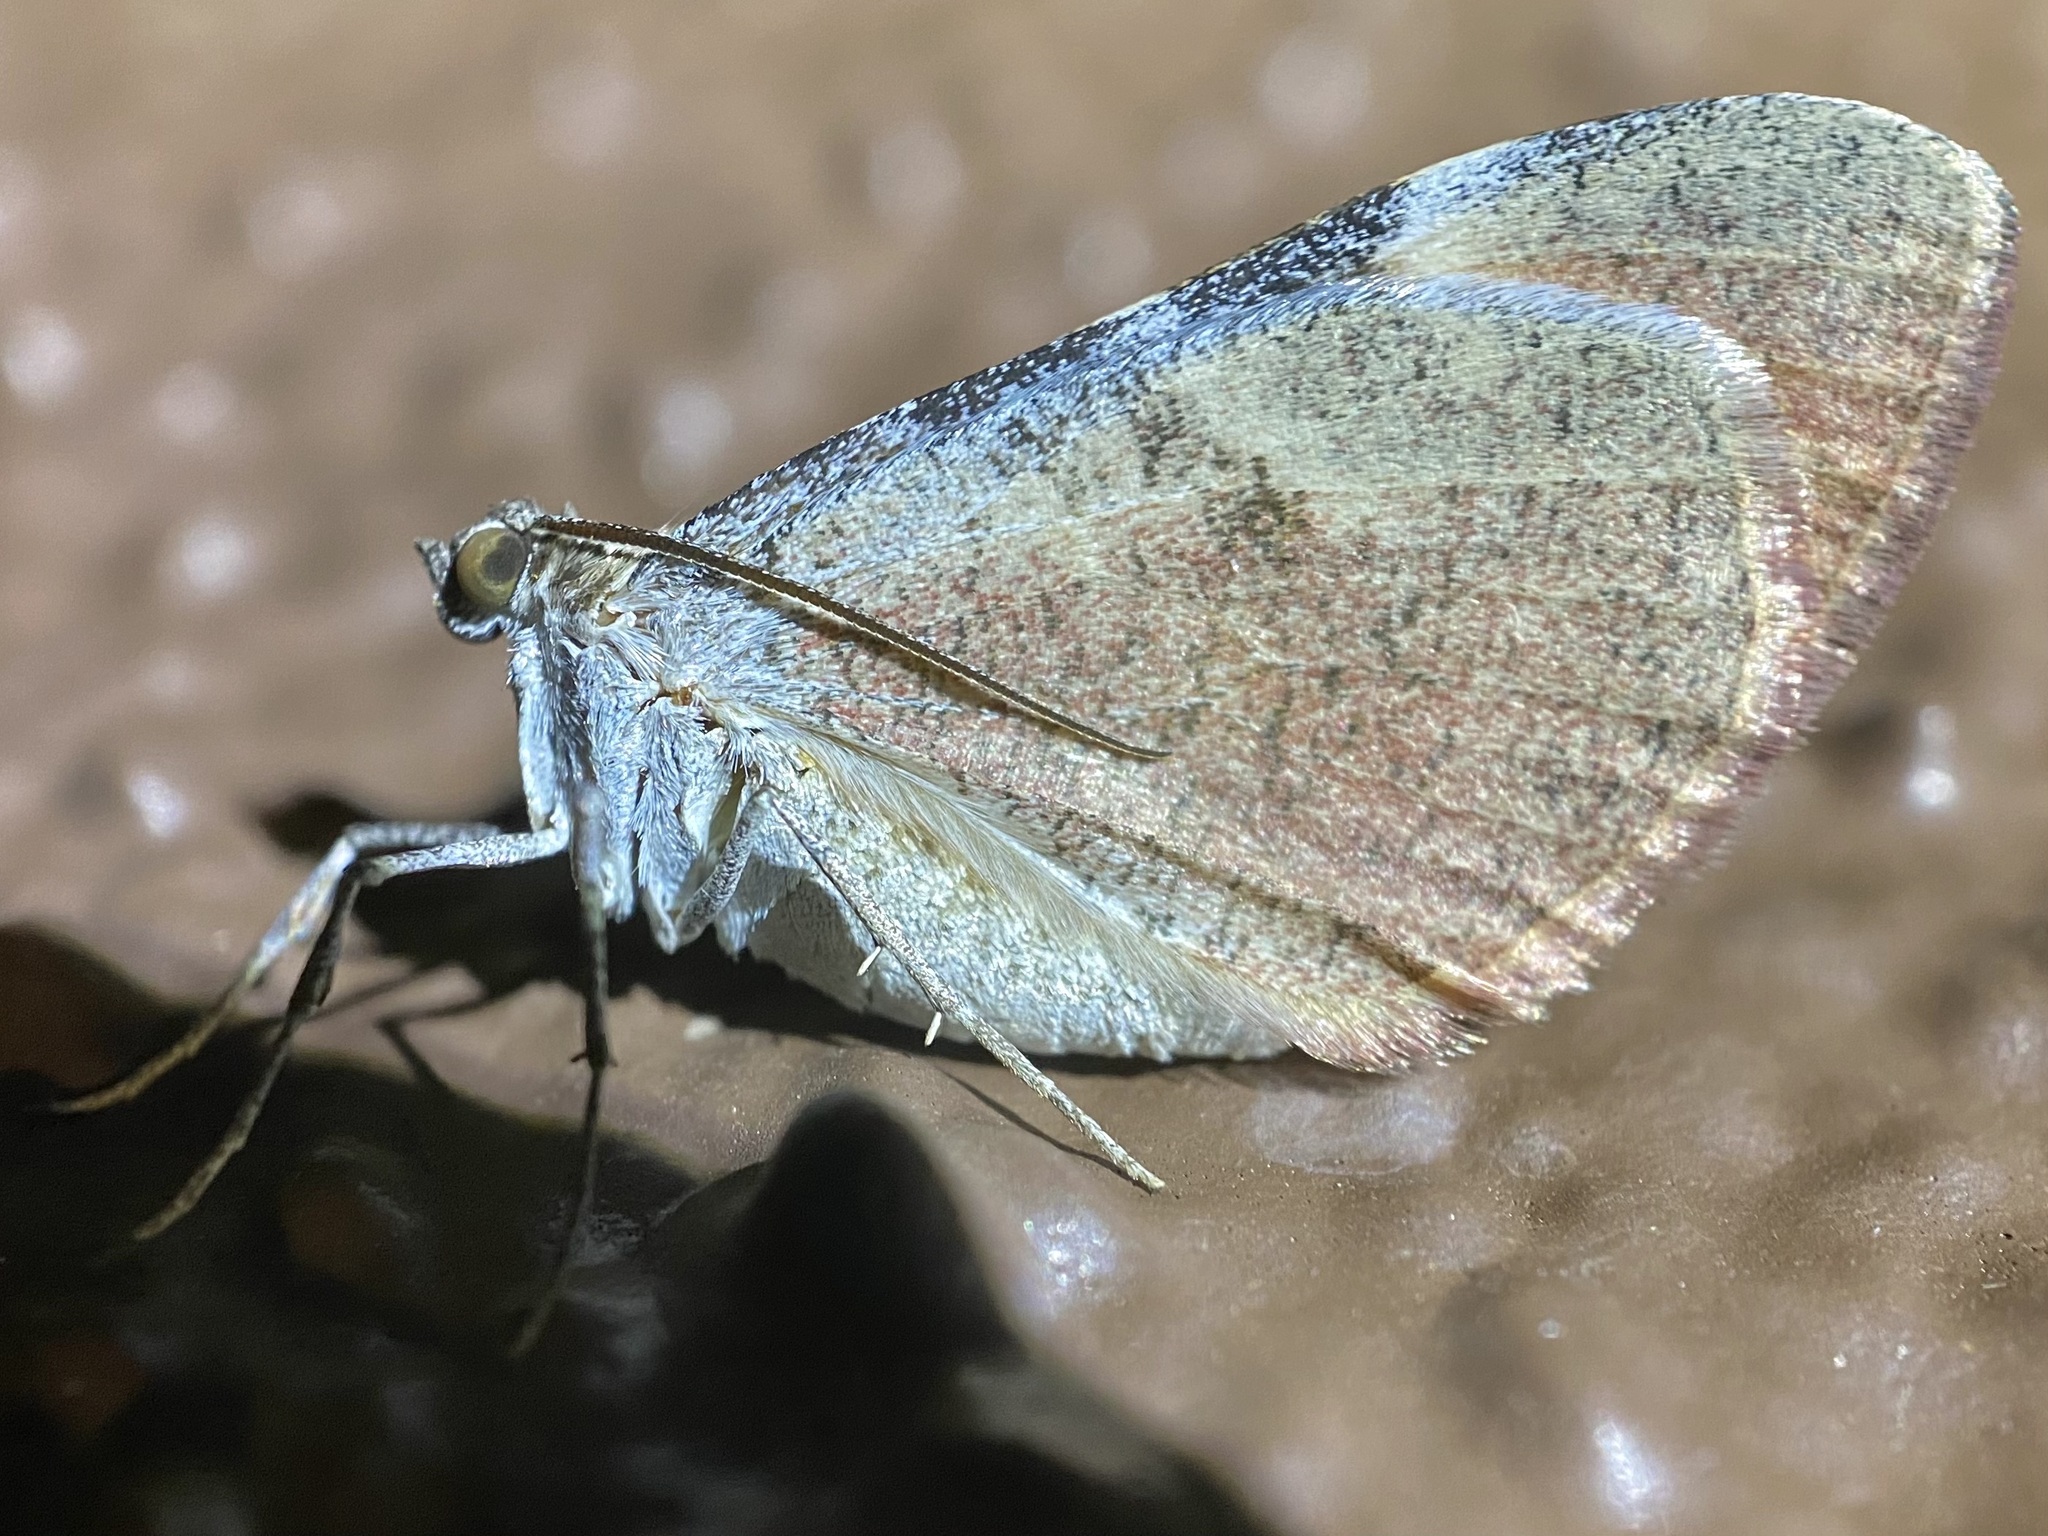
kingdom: Animalia
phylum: Arthropoda
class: Insecta
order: Lepidoptera
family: Geometridae
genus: Stamnodes
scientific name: Stamnodes seiferti
